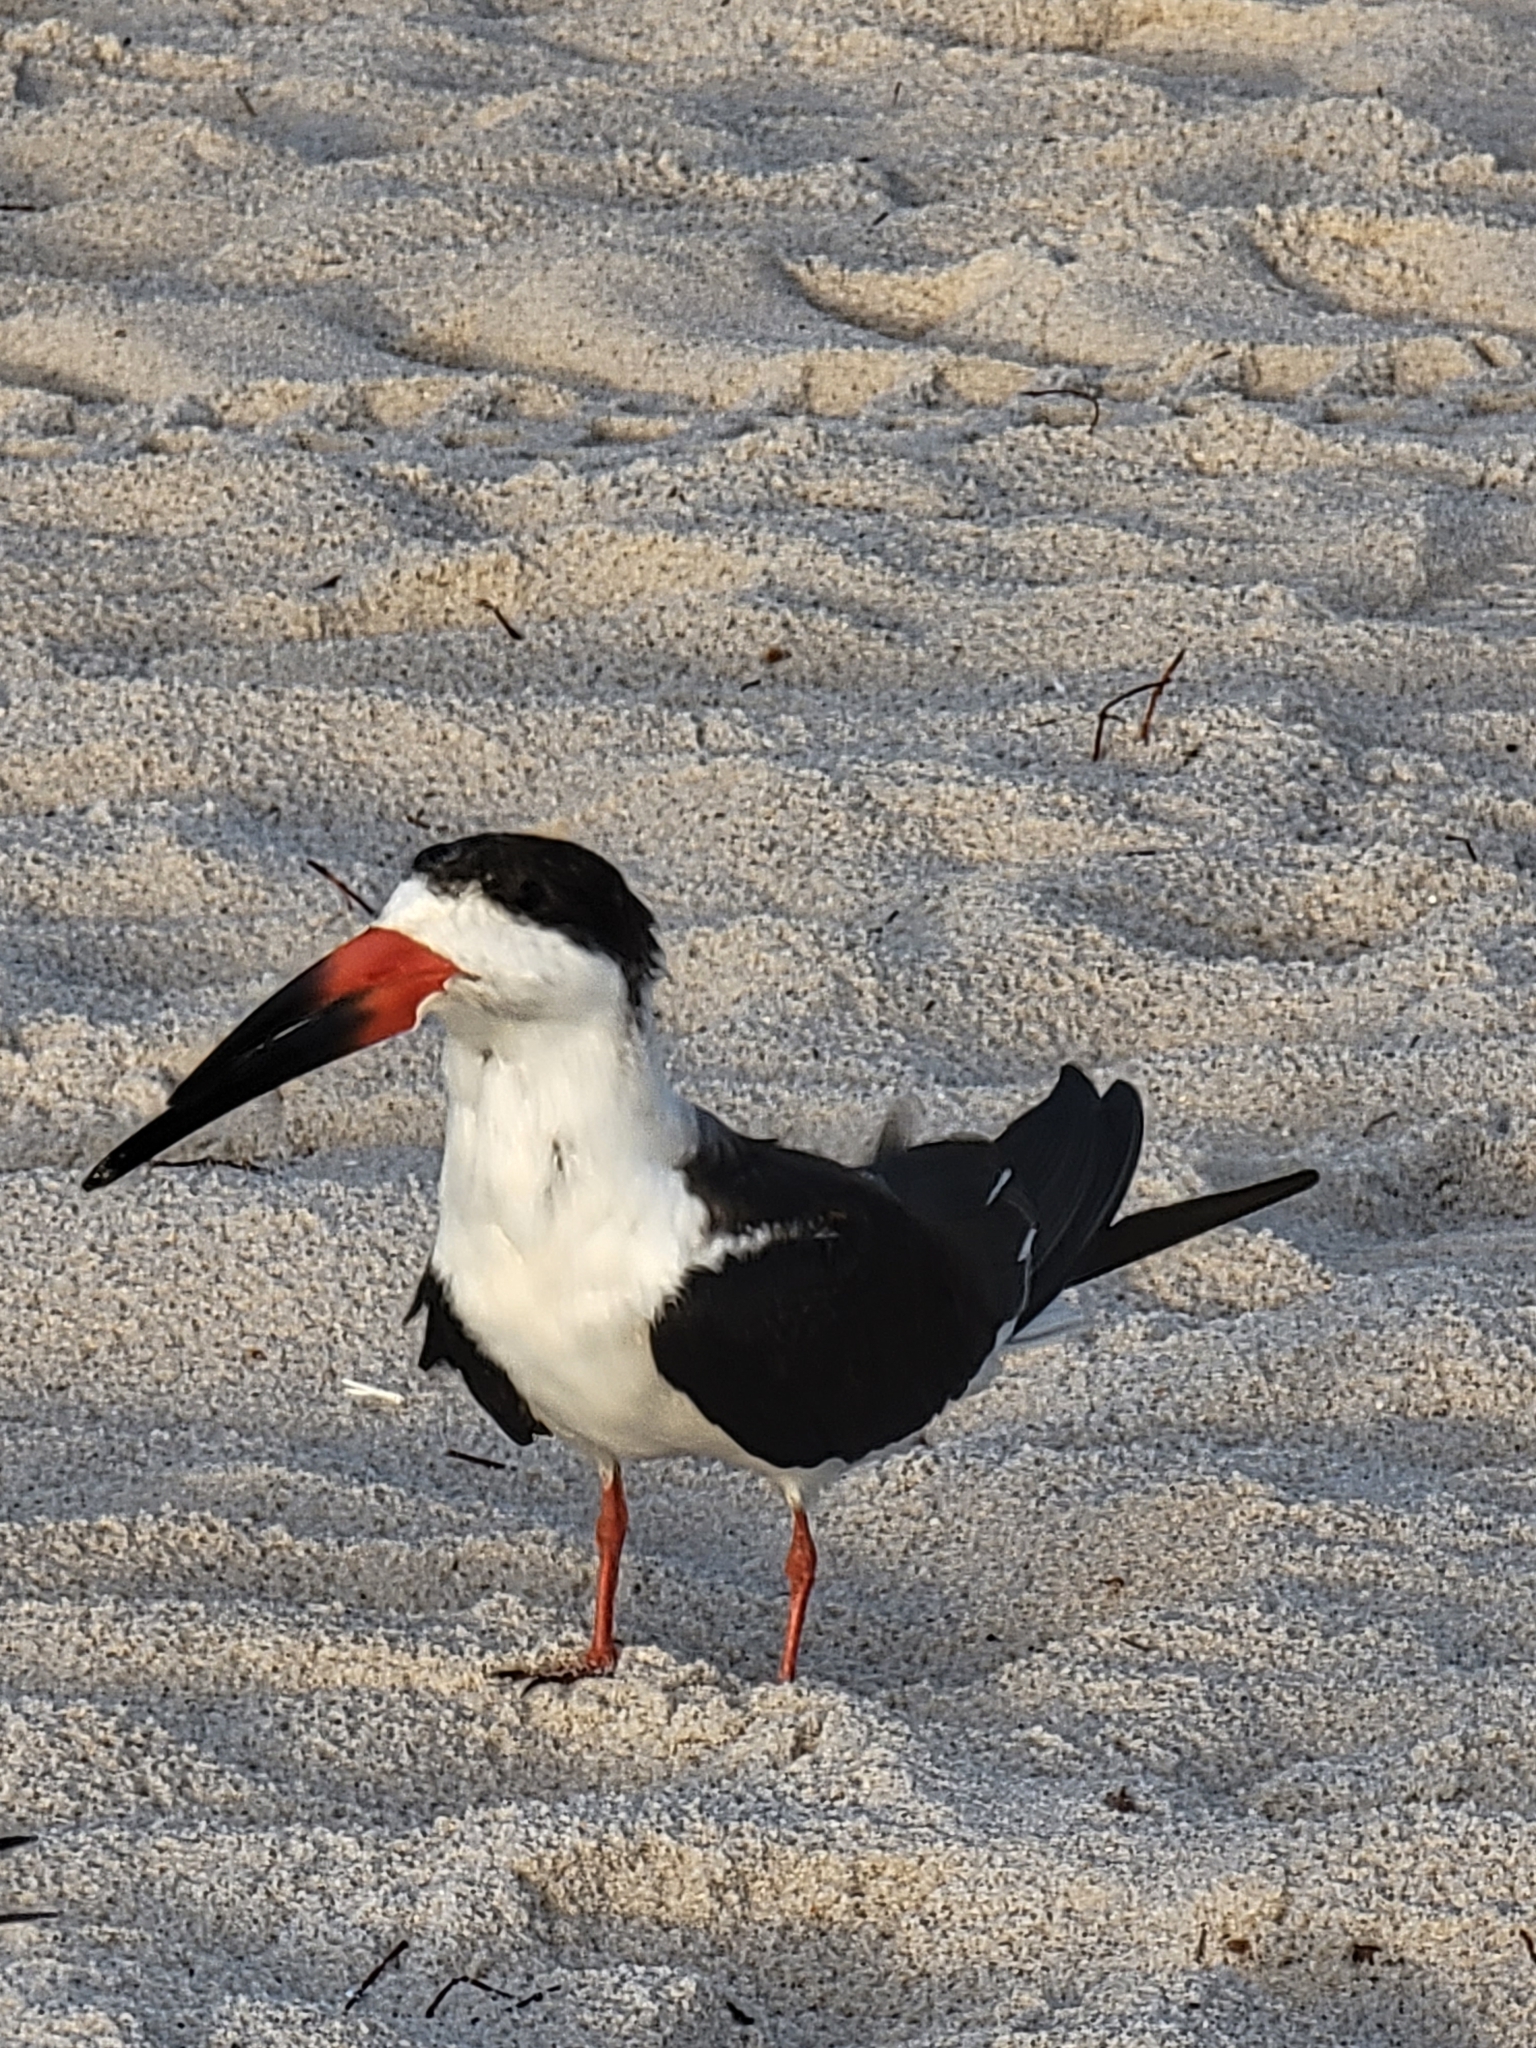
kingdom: Animalia
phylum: Chordata
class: Aves
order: Charadriiformes
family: Laridae
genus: Rynchops
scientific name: Rynchops niger
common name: Black skimmer
